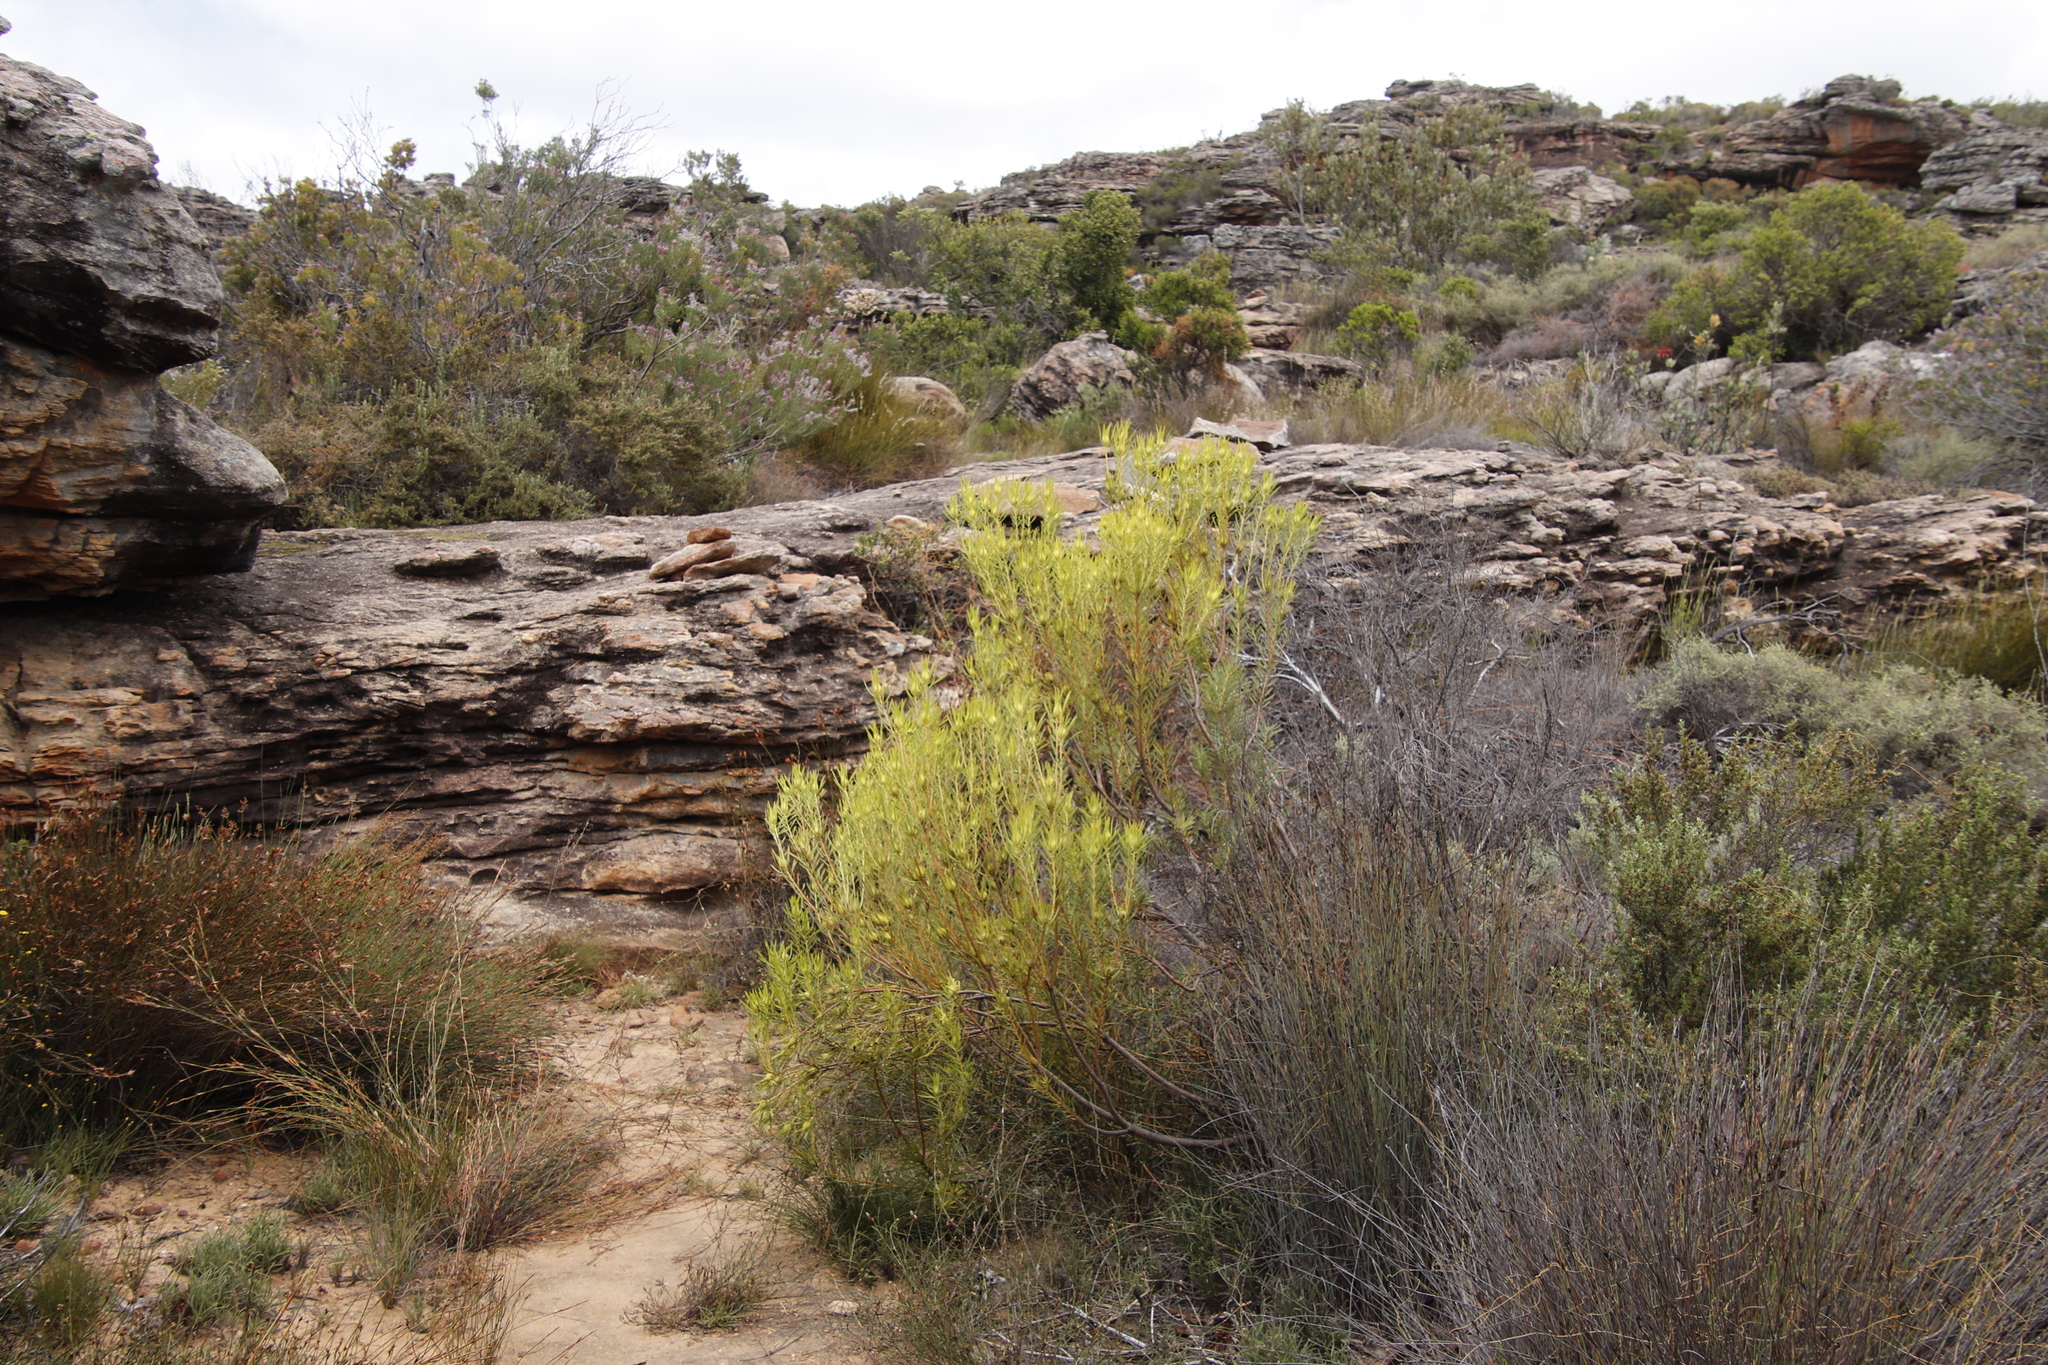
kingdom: Plantae
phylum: Tracheophyta
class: Magnoliopsida
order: Proteales
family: Proteaceae
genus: Leucadendron
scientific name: Leucadendron salignum
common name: Common sunshine conebush
